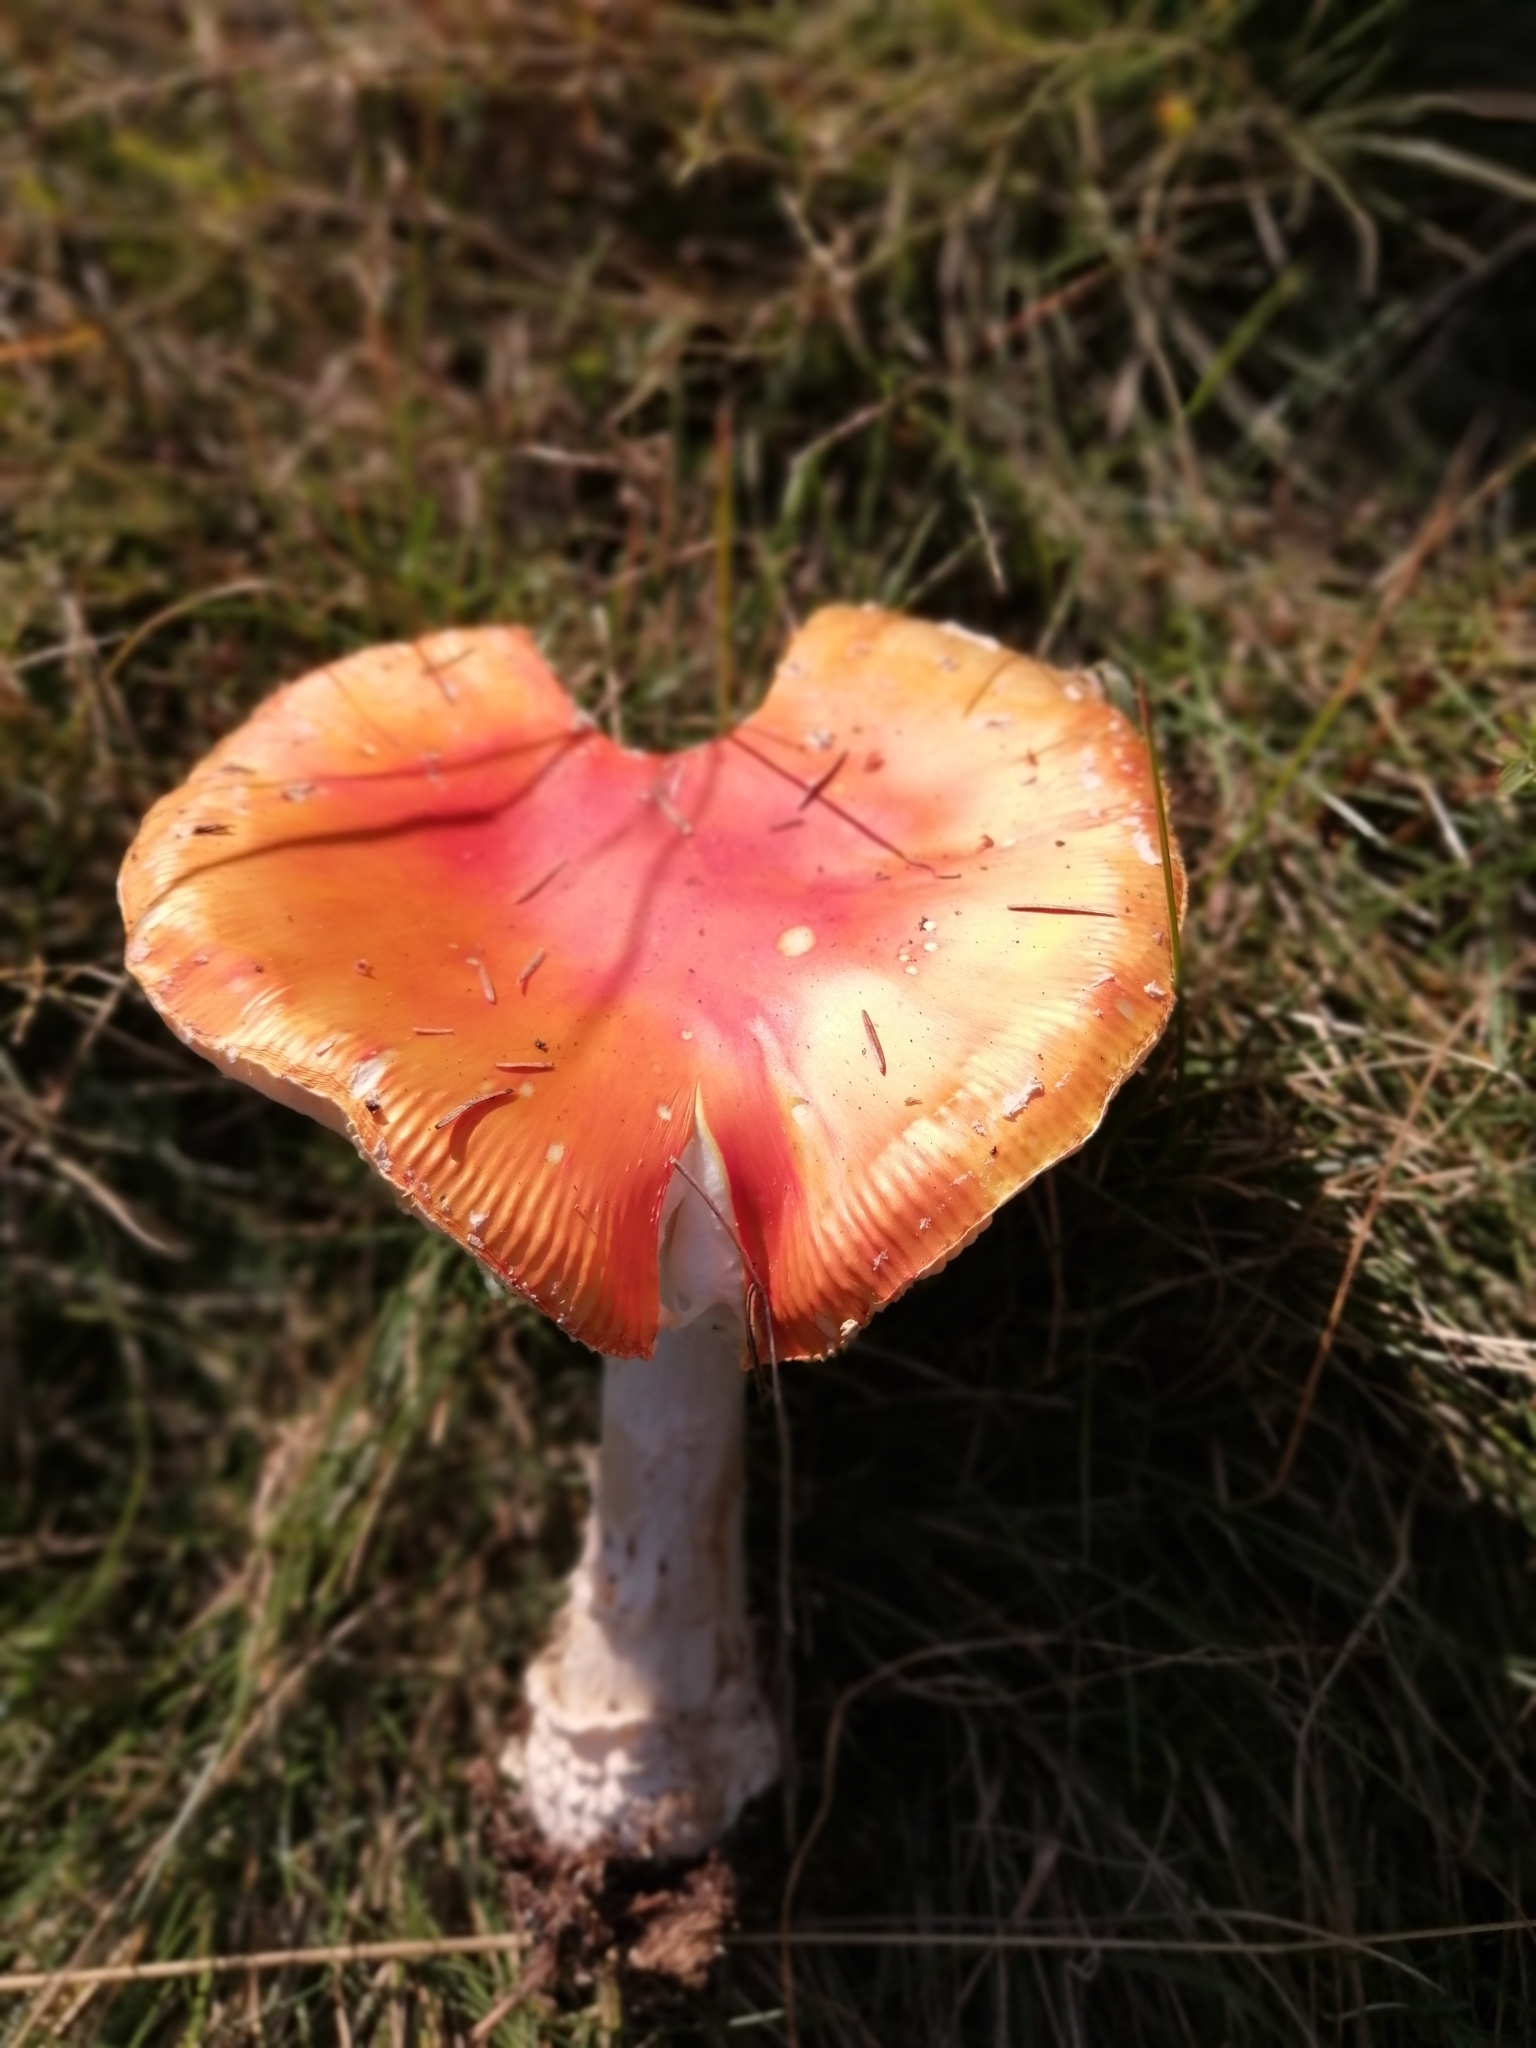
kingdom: Fungi
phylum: Basidiomycota
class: Agaricomycetes
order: Agaricales
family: Amanitaceae
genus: Amanita
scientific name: Amanita muscaria
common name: Fly agaric
